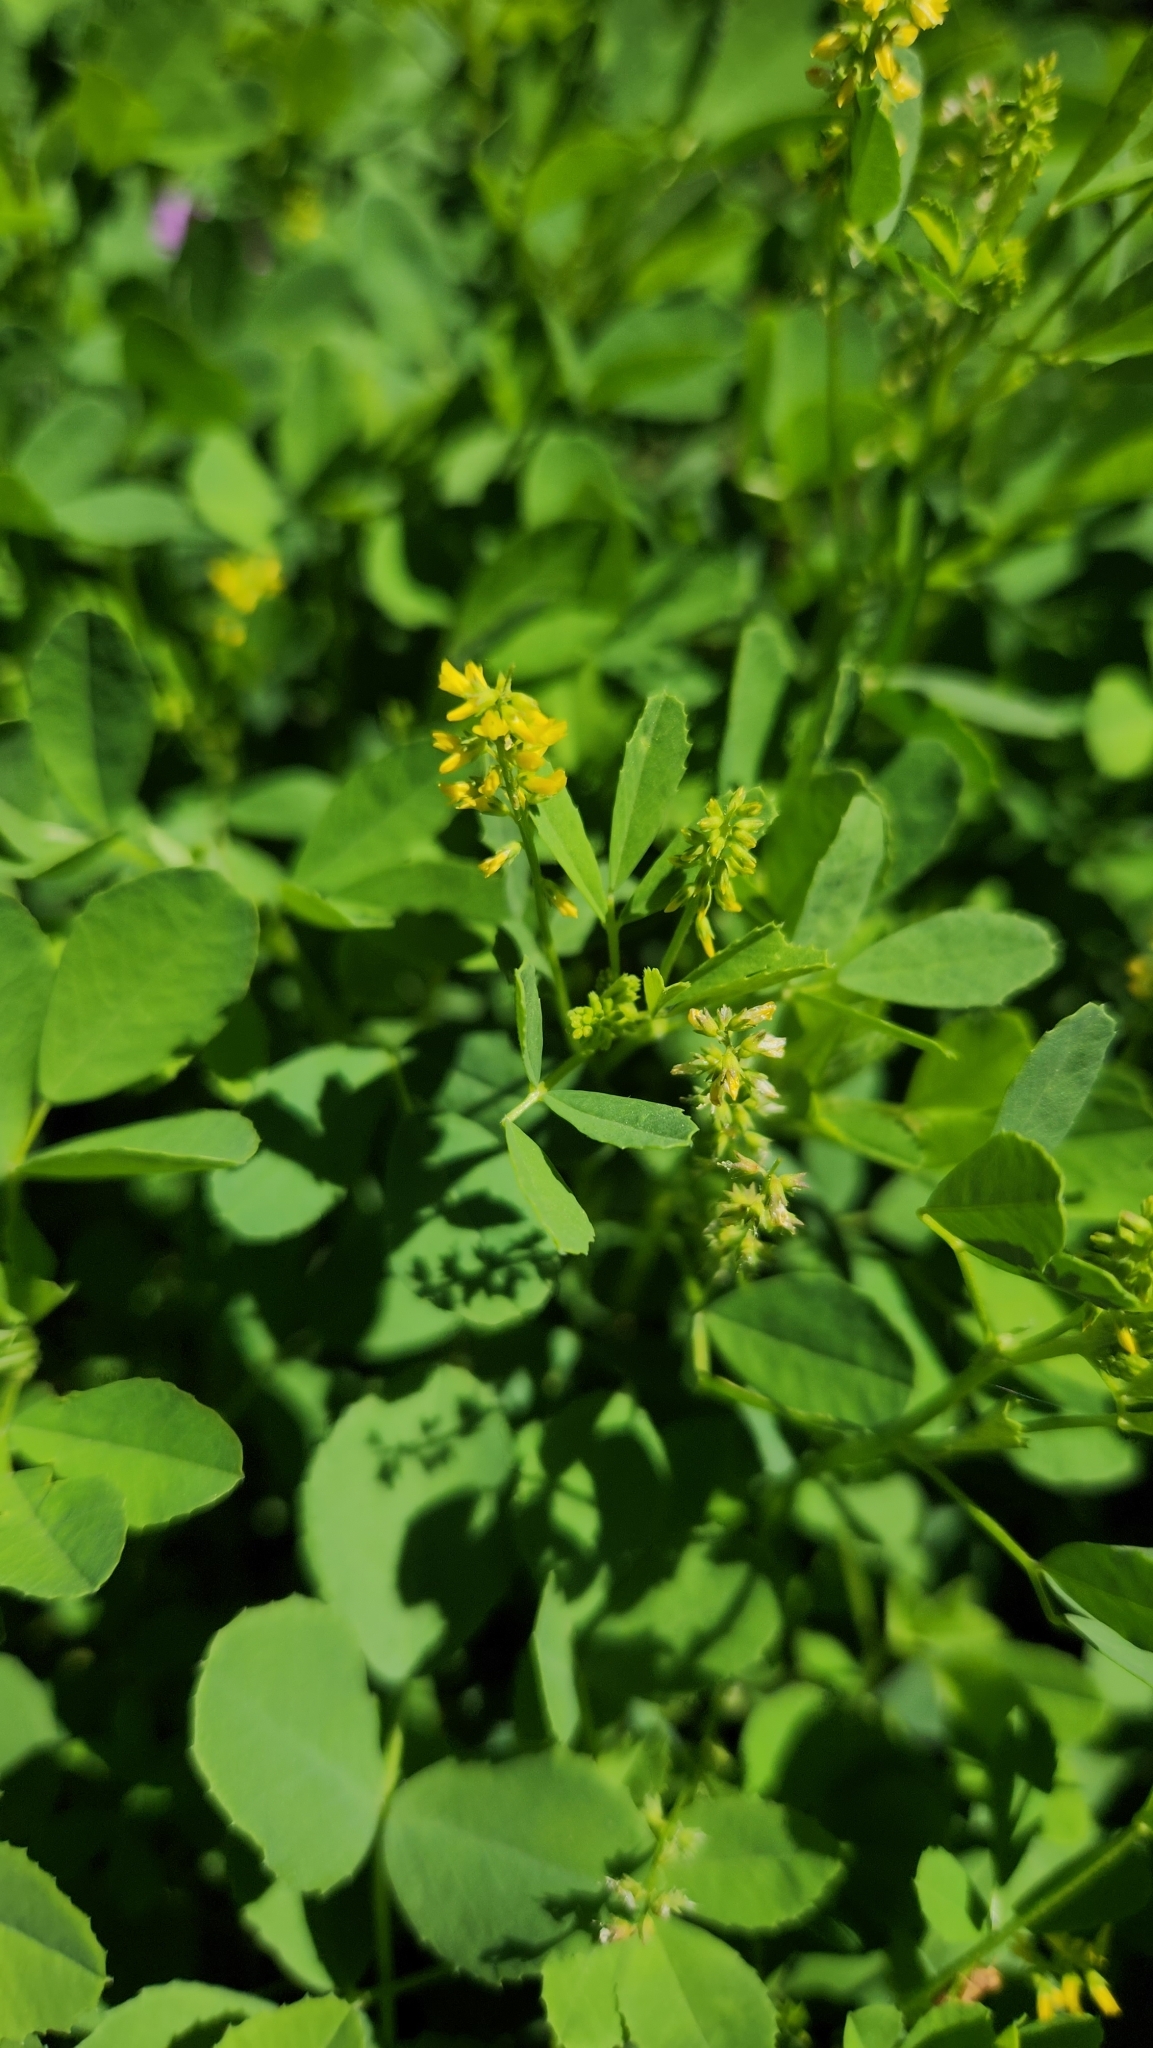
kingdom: Plantae
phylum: Tracheophyta
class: Magnoliopsida
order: Fabales
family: Fabaceae
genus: Melilotus
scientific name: Melilotus indicus
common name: Small melilot
